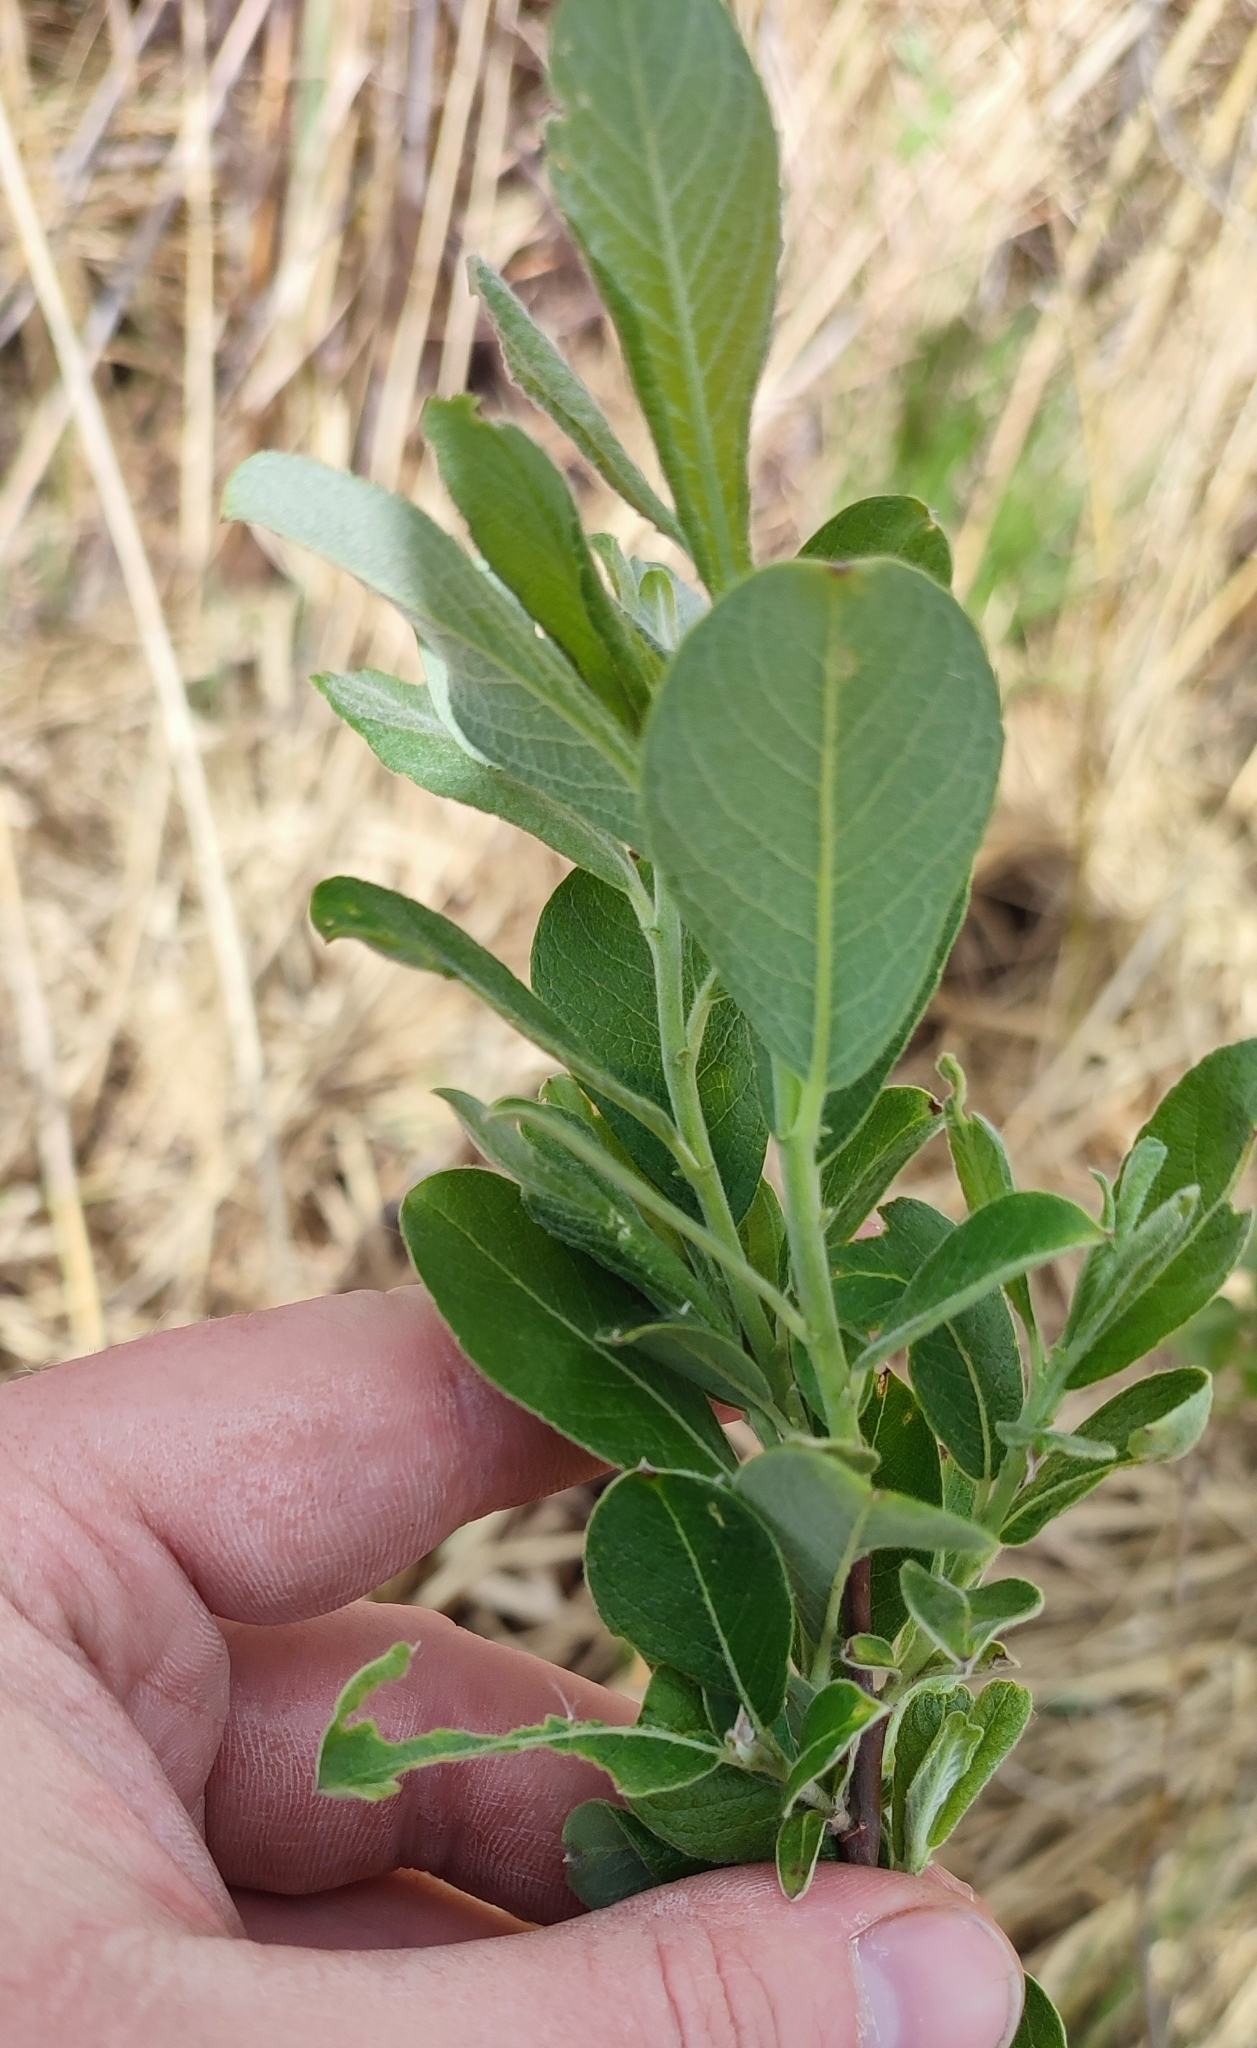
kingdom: Plantae
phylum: Tracheophyta
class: Magnoliopsida
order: Malpighiales
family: Salicaceae
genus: Salix
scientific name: Salix cinerea
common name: Common sallow
